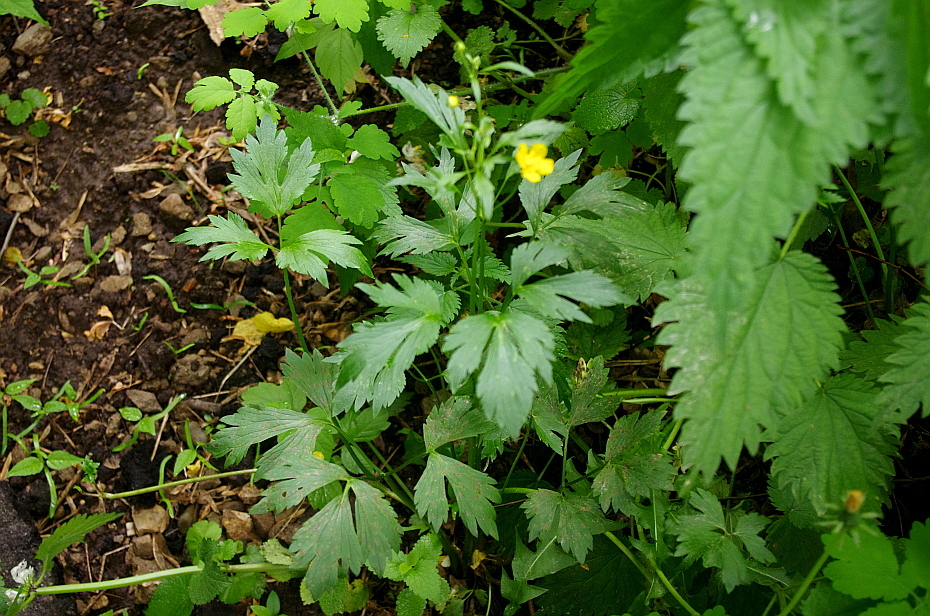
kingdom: Plantae
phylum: Tracheophyta
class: Magnoliopsida
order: Ranunculales
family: Ranunculaceae
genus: Ranunculus
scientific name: Ranunculus repens
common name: Creeping buttercup
